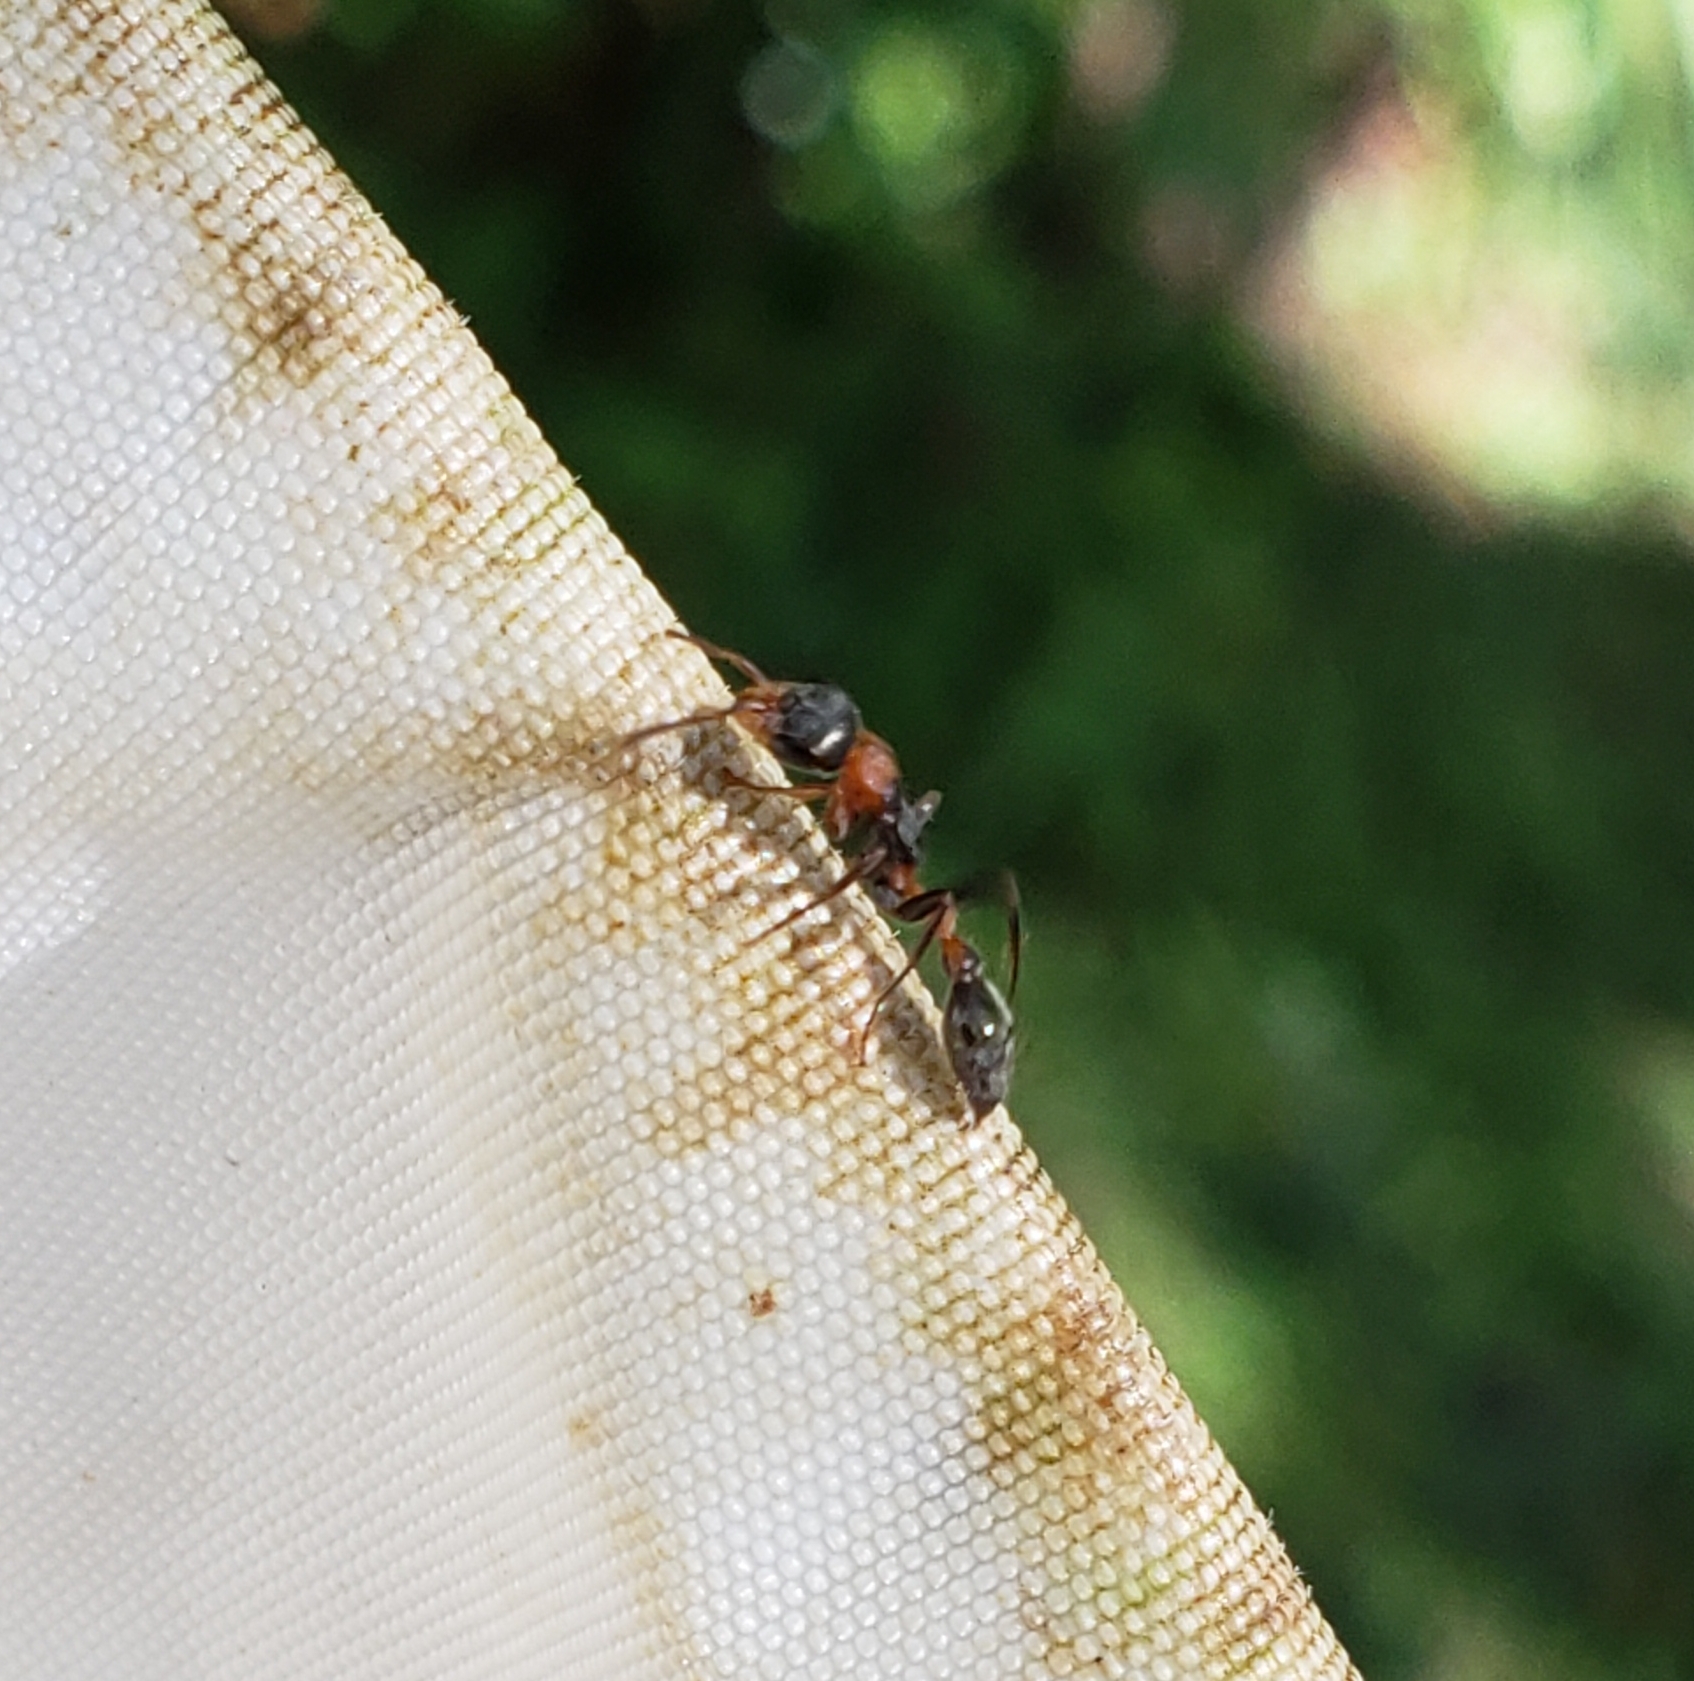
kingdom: Animalia
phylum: Arthropoda
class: Insecta
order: Hymenoptera
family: Formicidae
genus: Pseudomyrmex
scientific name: Pseudomyrmex gracilis
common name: Graceful twig ant
